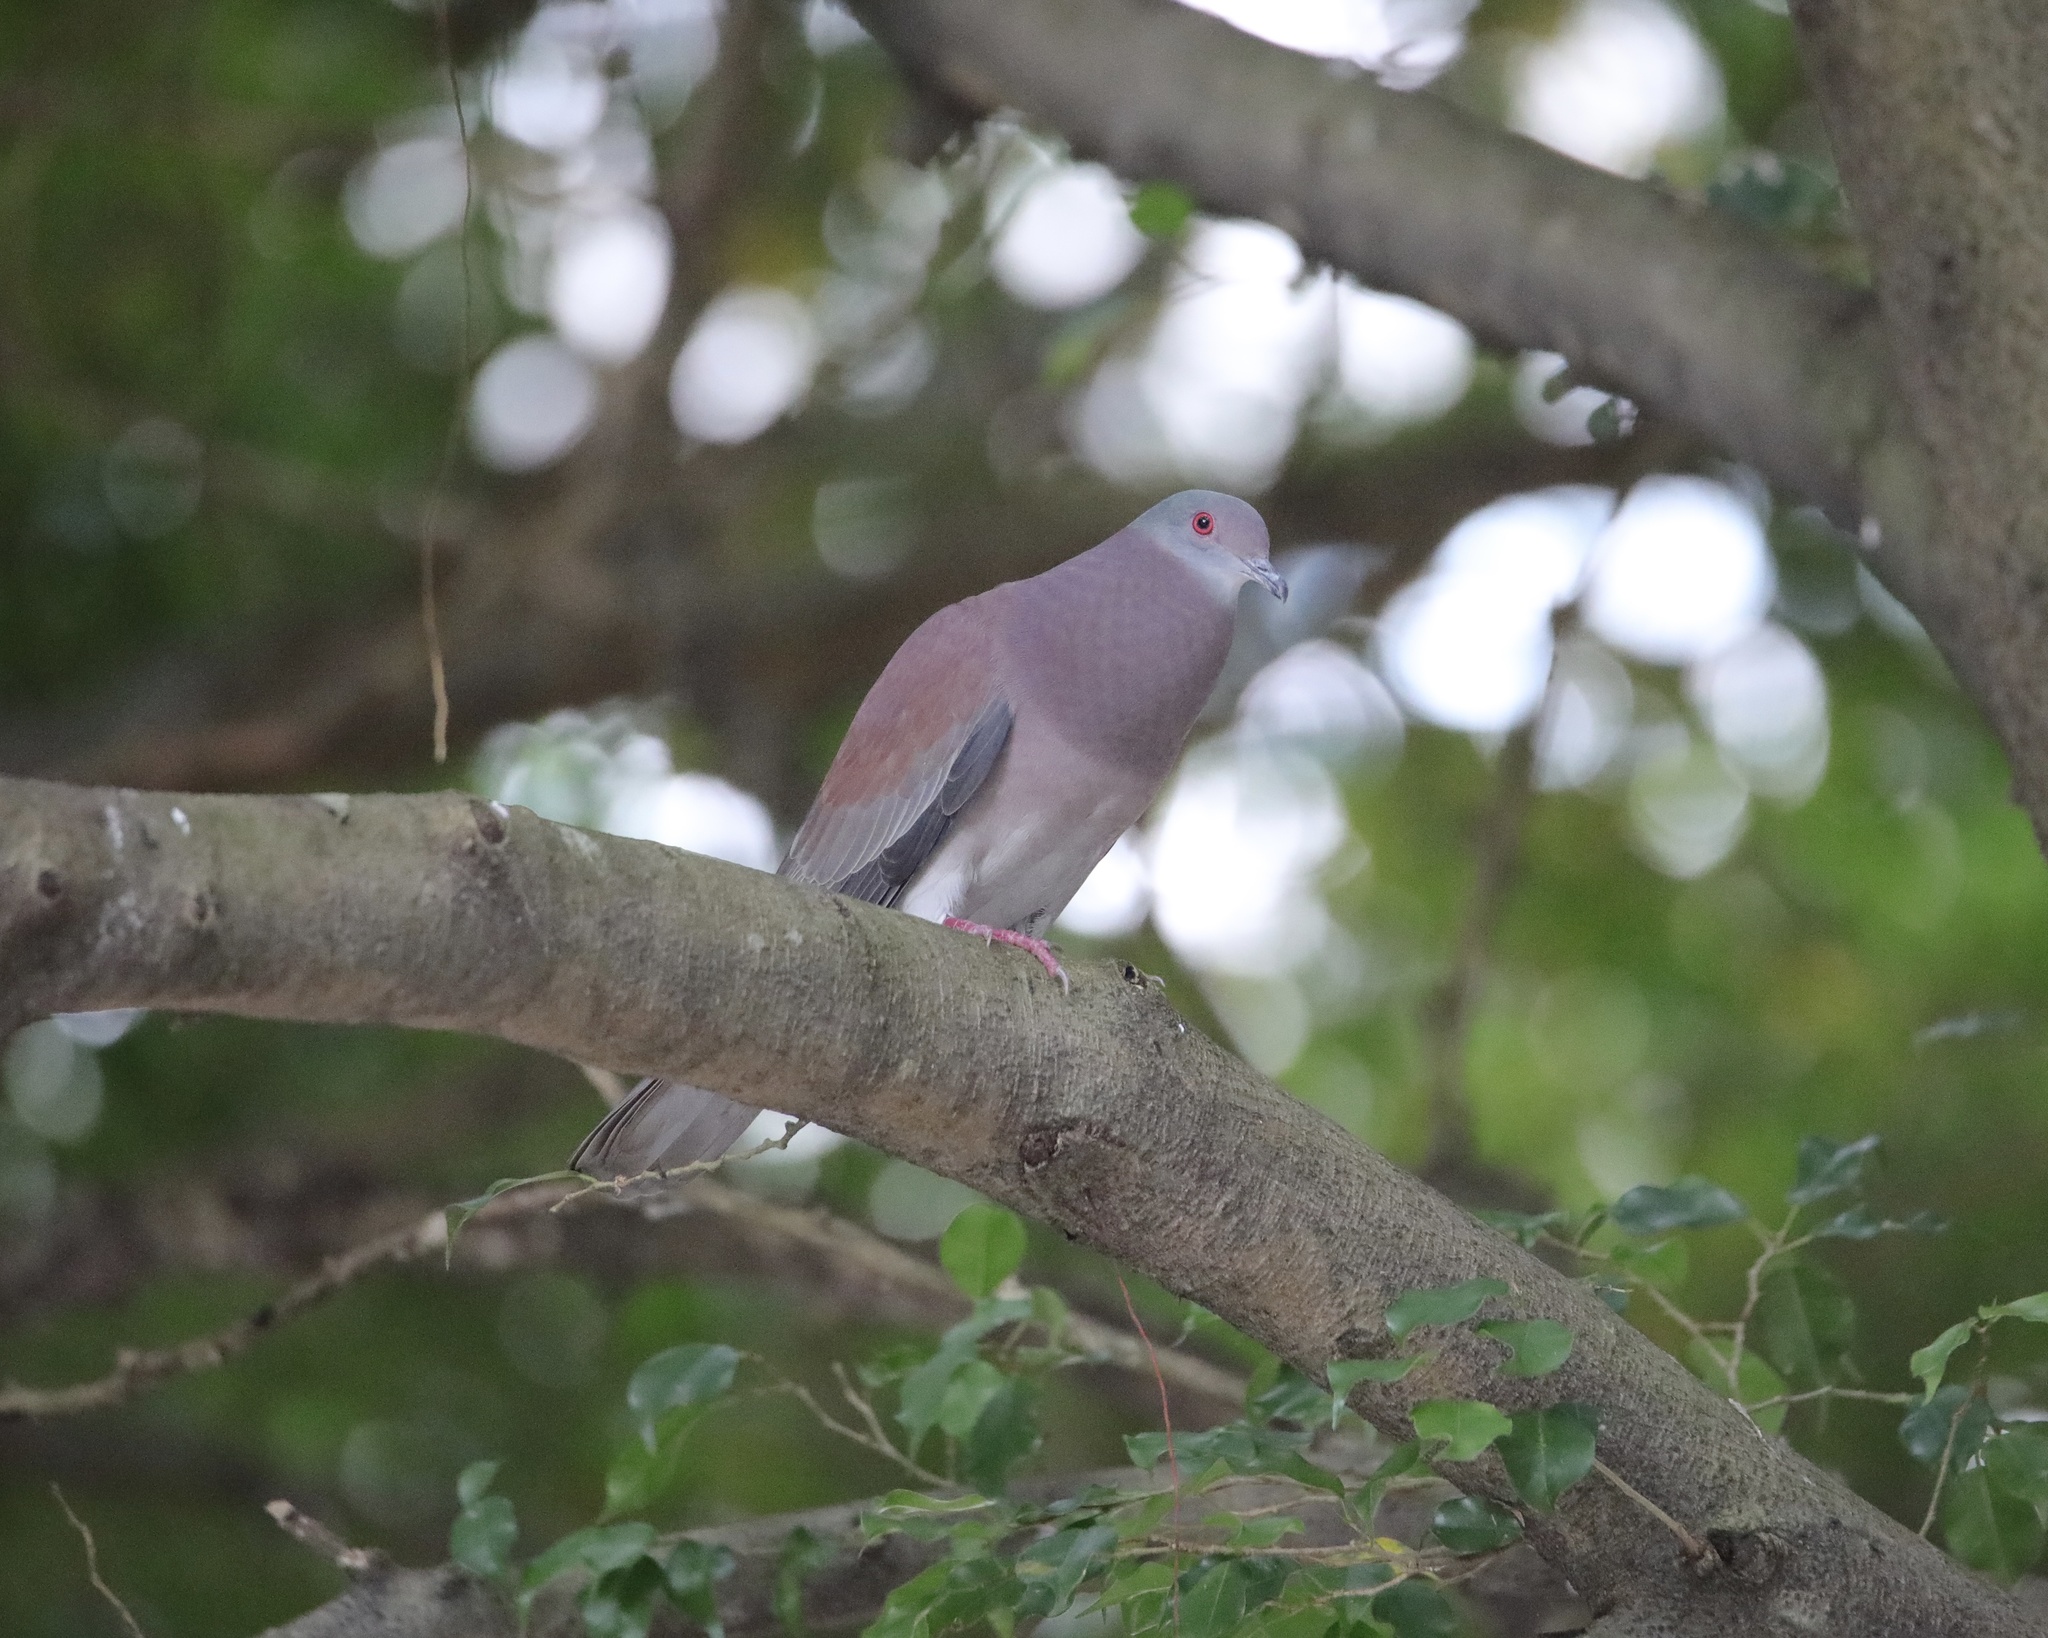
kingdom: Animalia
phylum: Chordata
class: Aves
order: Columbiformes
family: Columbidae
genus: Patagioenas
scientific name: Patagioenas cayennensis
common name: Pale-vented pigeon
